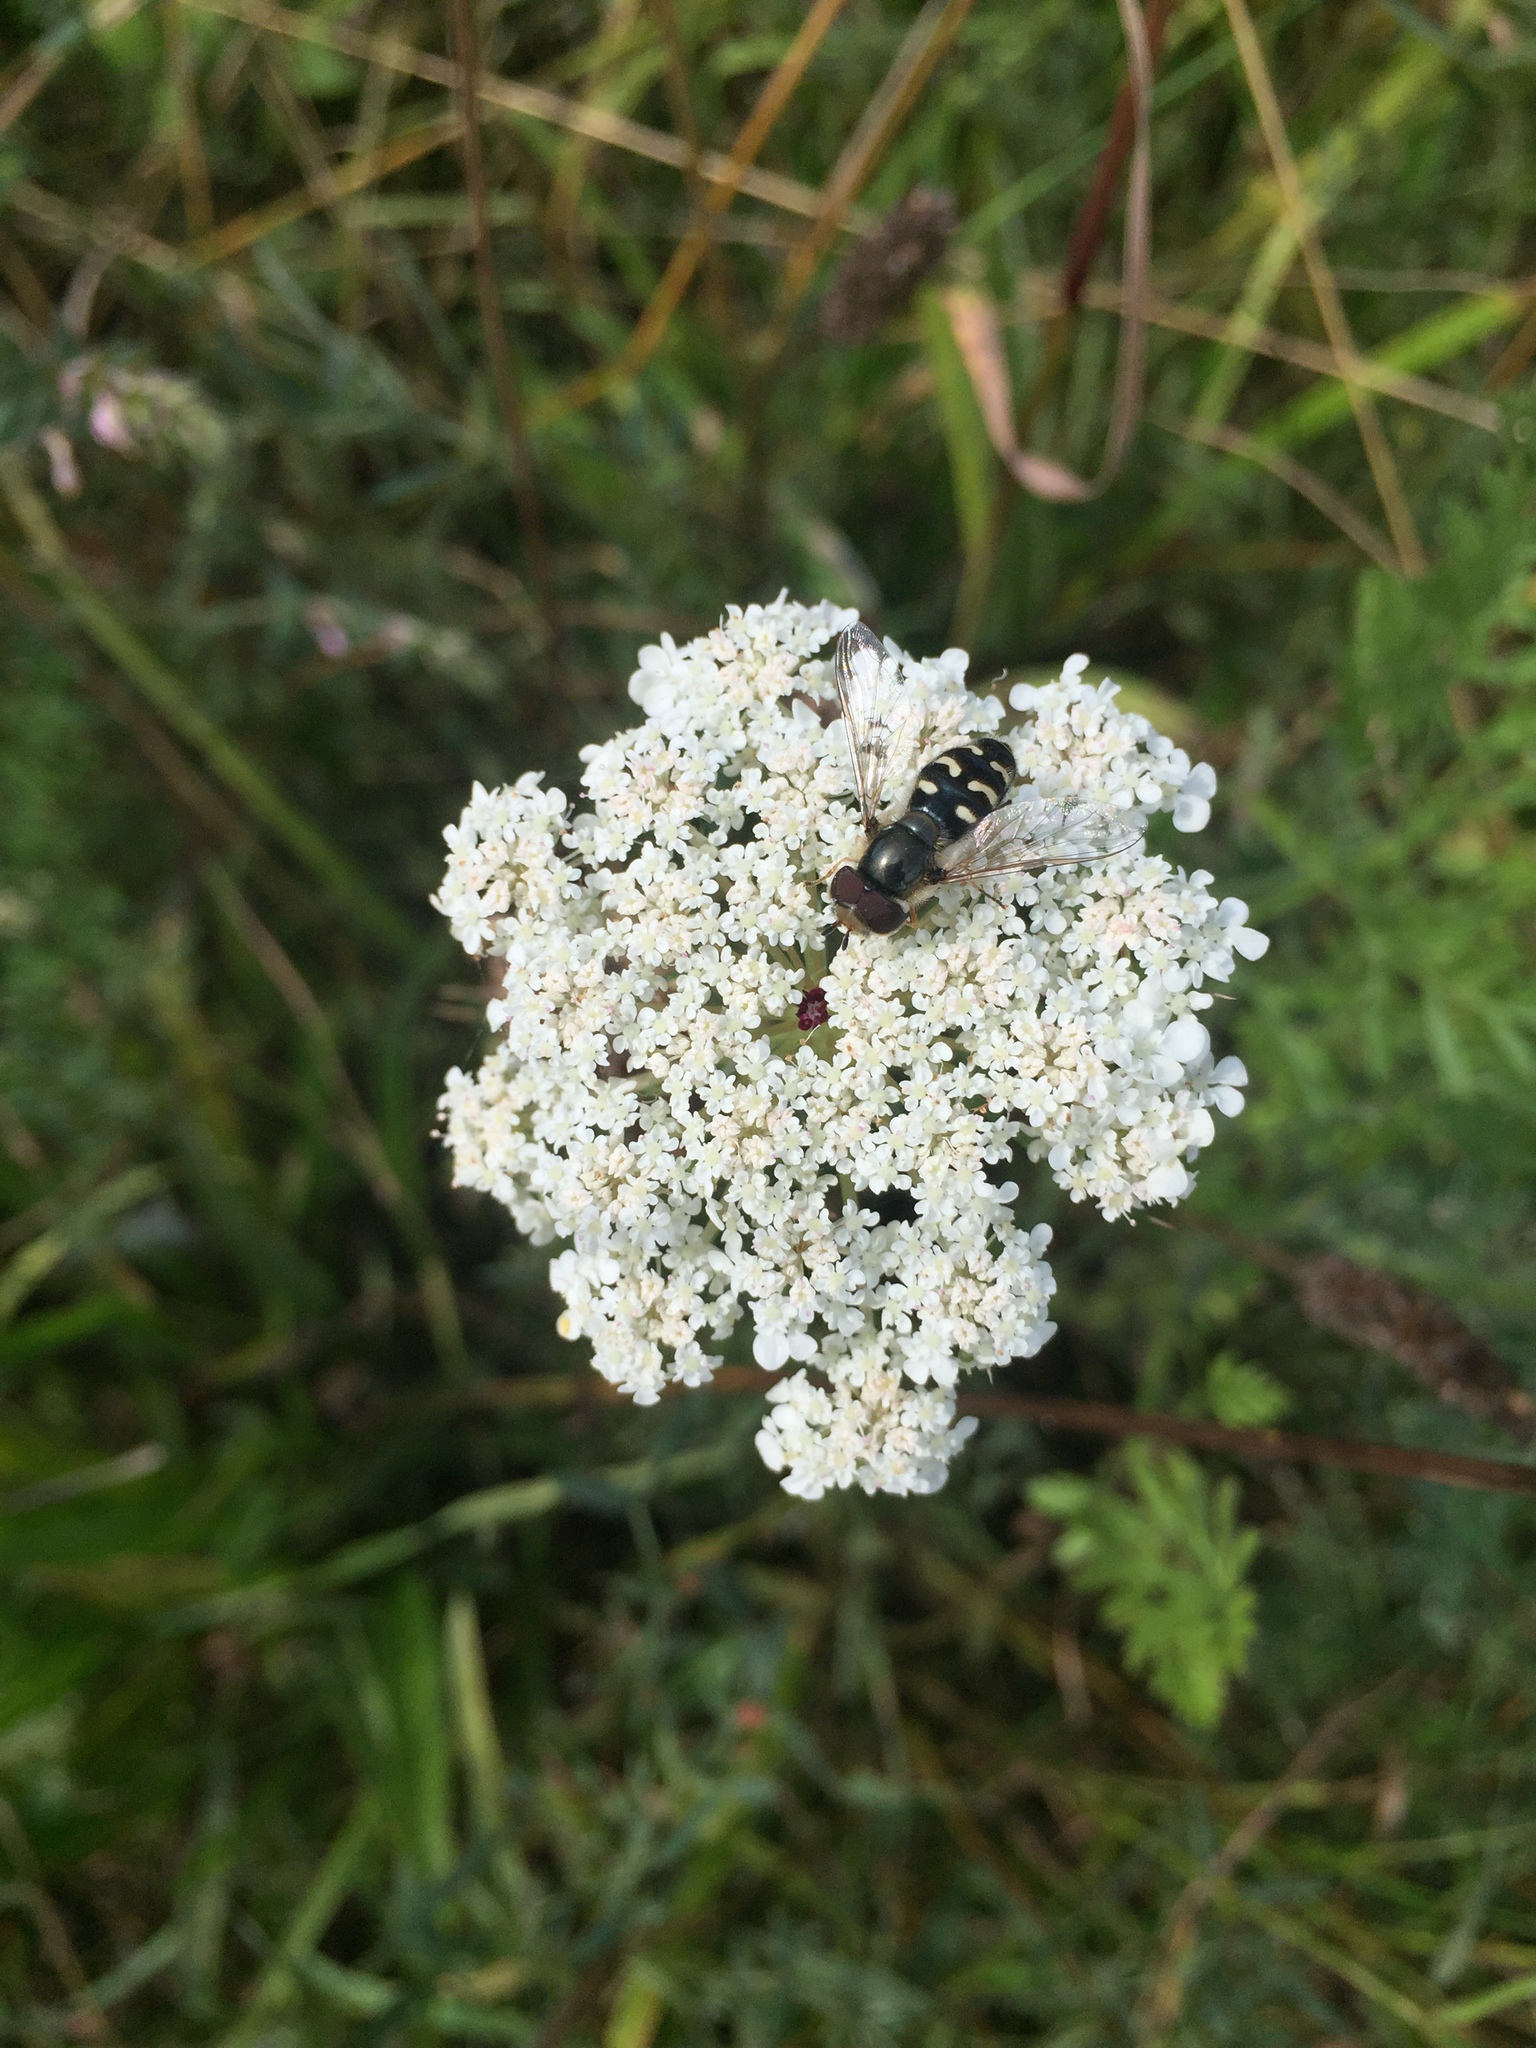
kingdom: Animalia
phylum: Arthropoda
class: Insecta
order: Diptera
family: Syrphidae
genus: Scaeva
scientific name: Scaeva pyrastri
